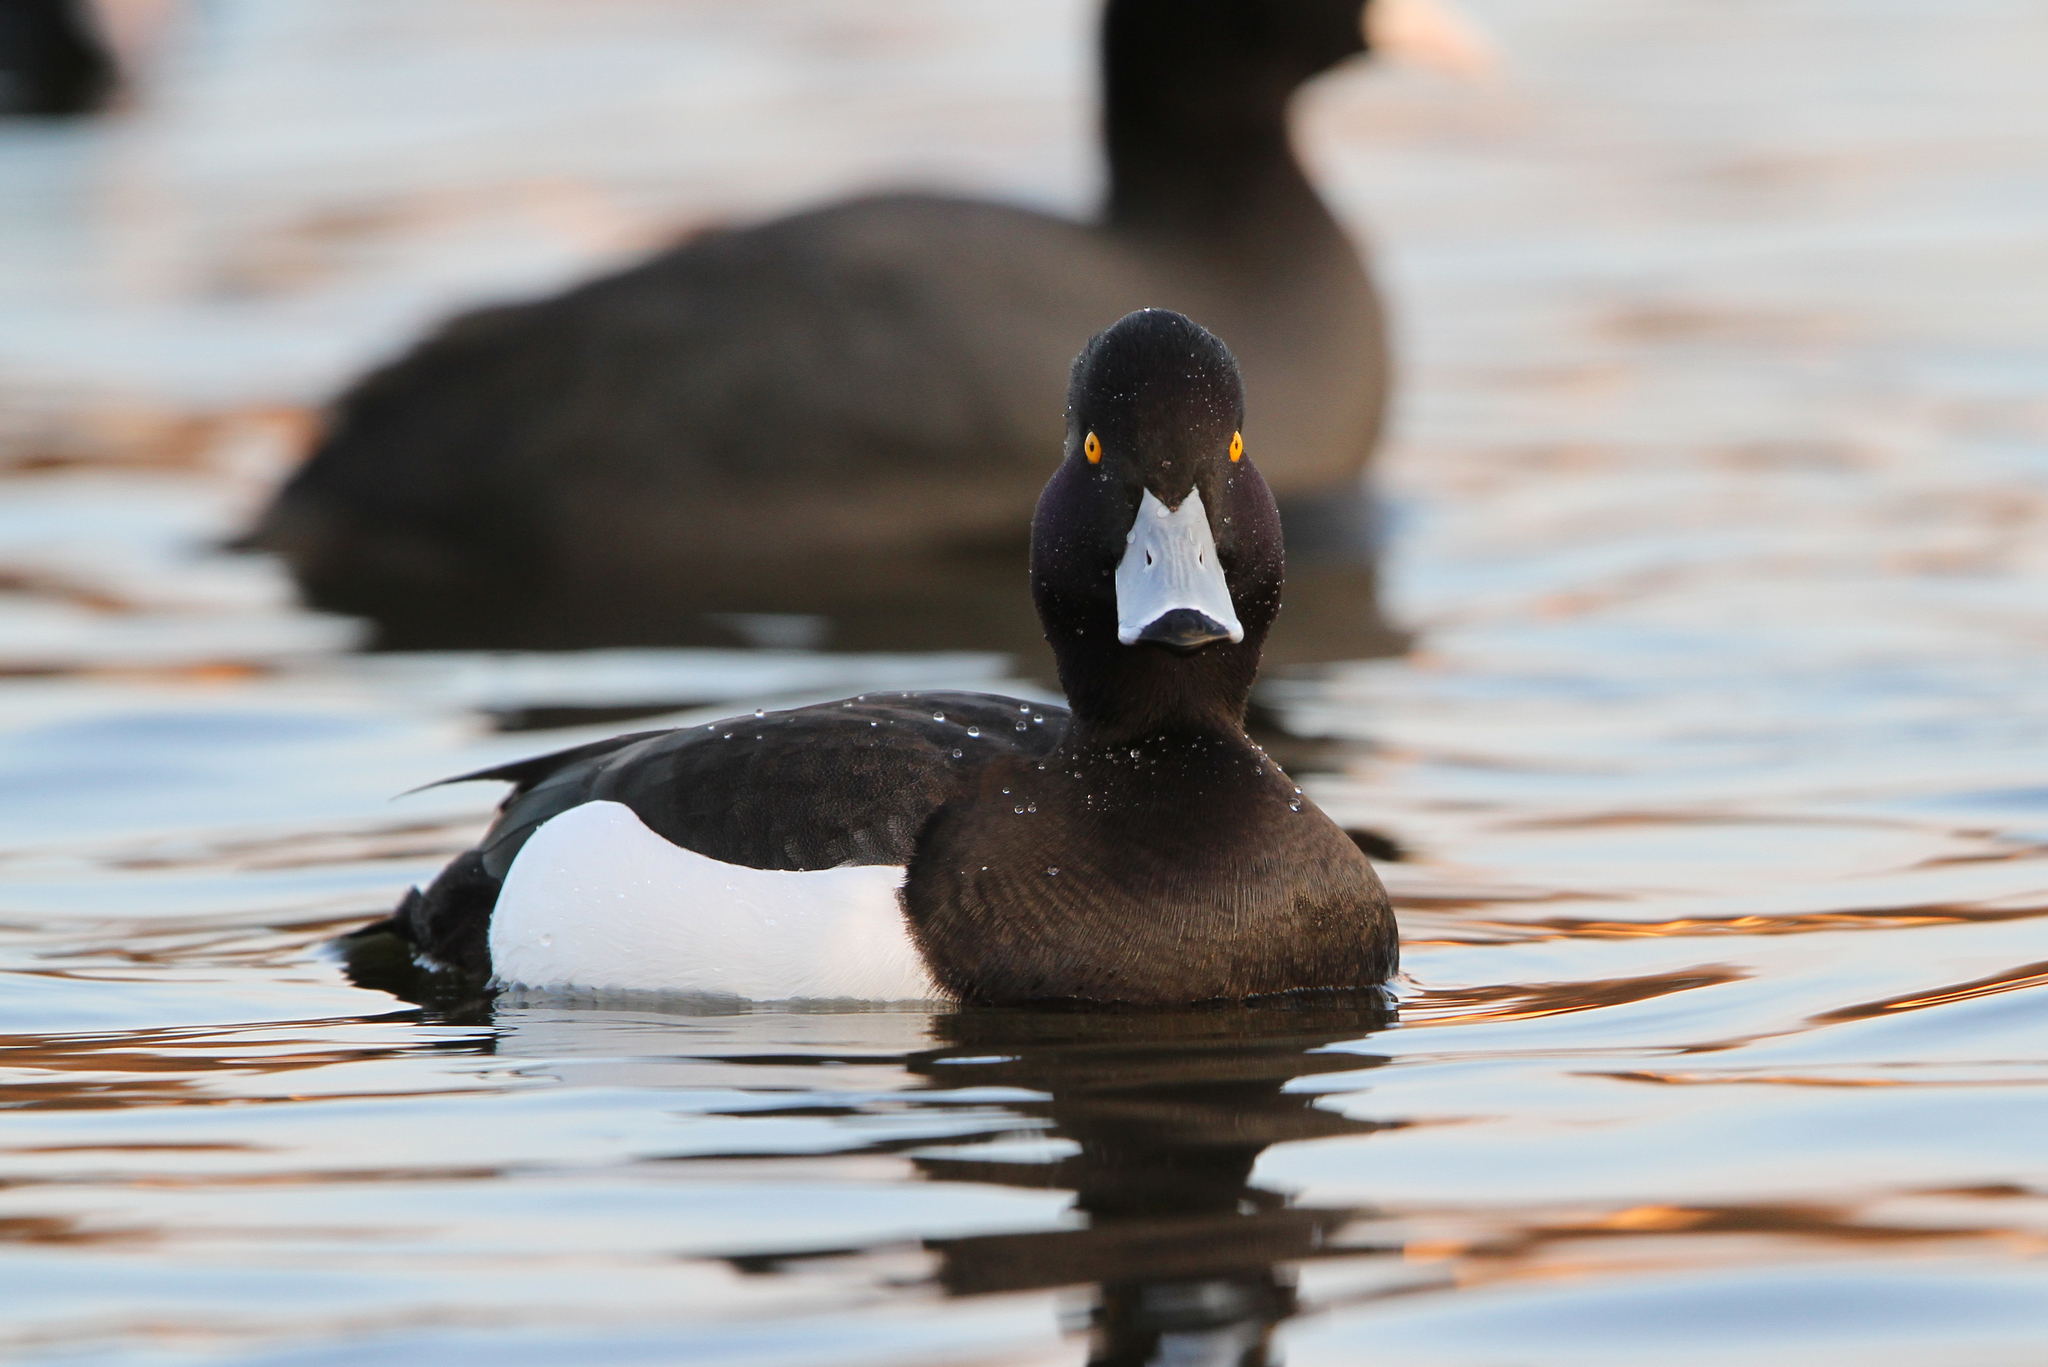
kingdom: Animalia
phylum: Chordata
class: Aves
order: Anseriformes
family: Anatidae
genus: Aythya
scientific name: Aythya fuligula
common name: Tufted duck
